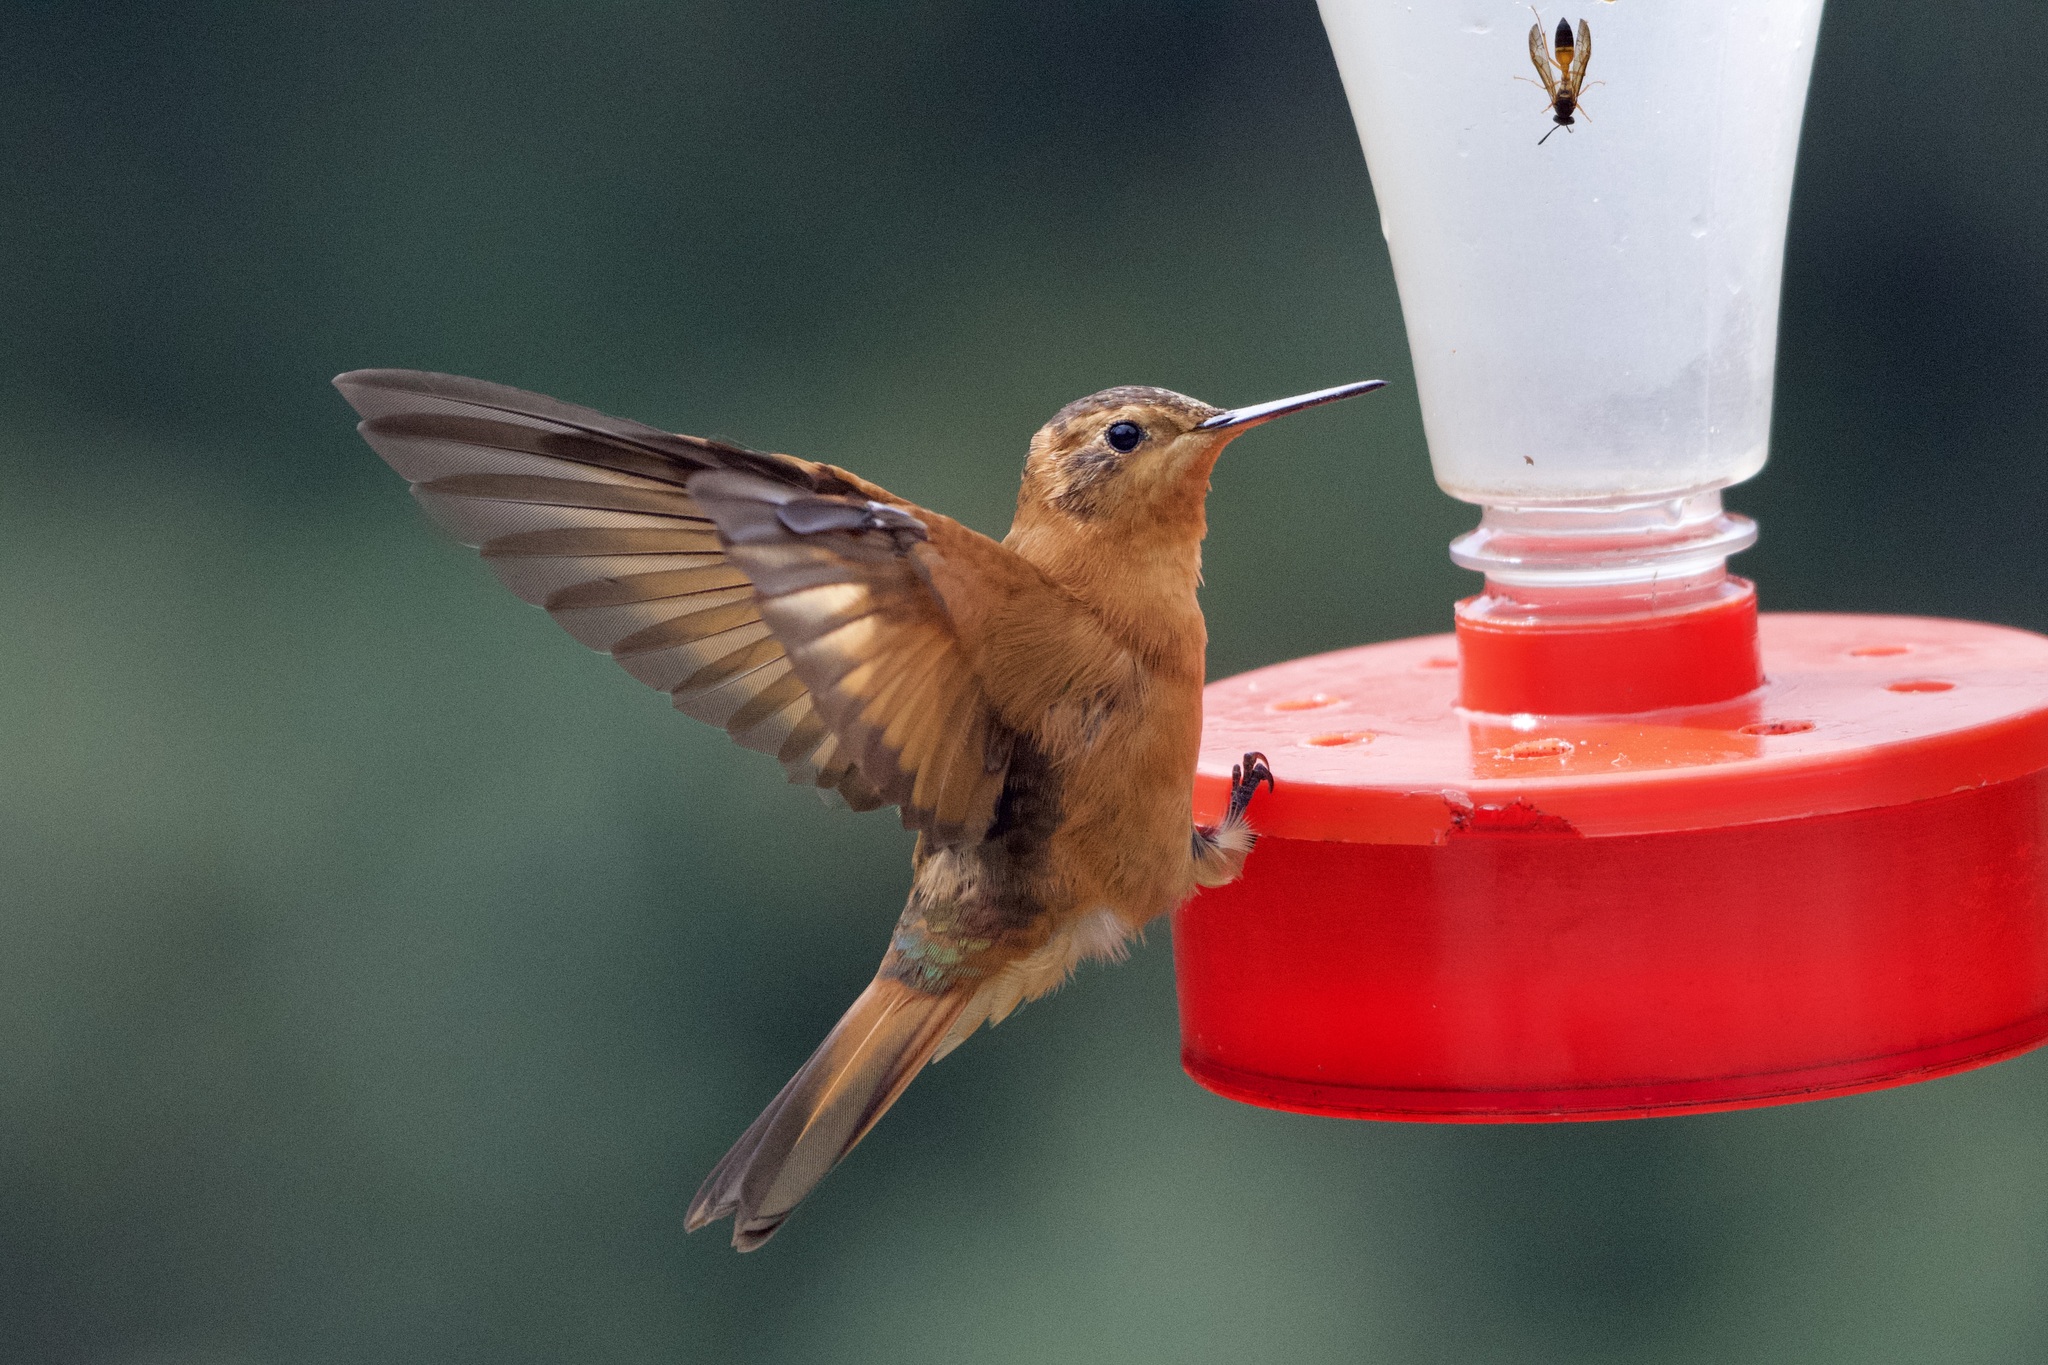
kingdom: Animalia
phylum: Chordata
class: Aves
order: Apodiformes
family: Trochilidae
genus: Aglaeactis
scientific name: Aglaeactis cupripennis
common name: Shining sunbeam
